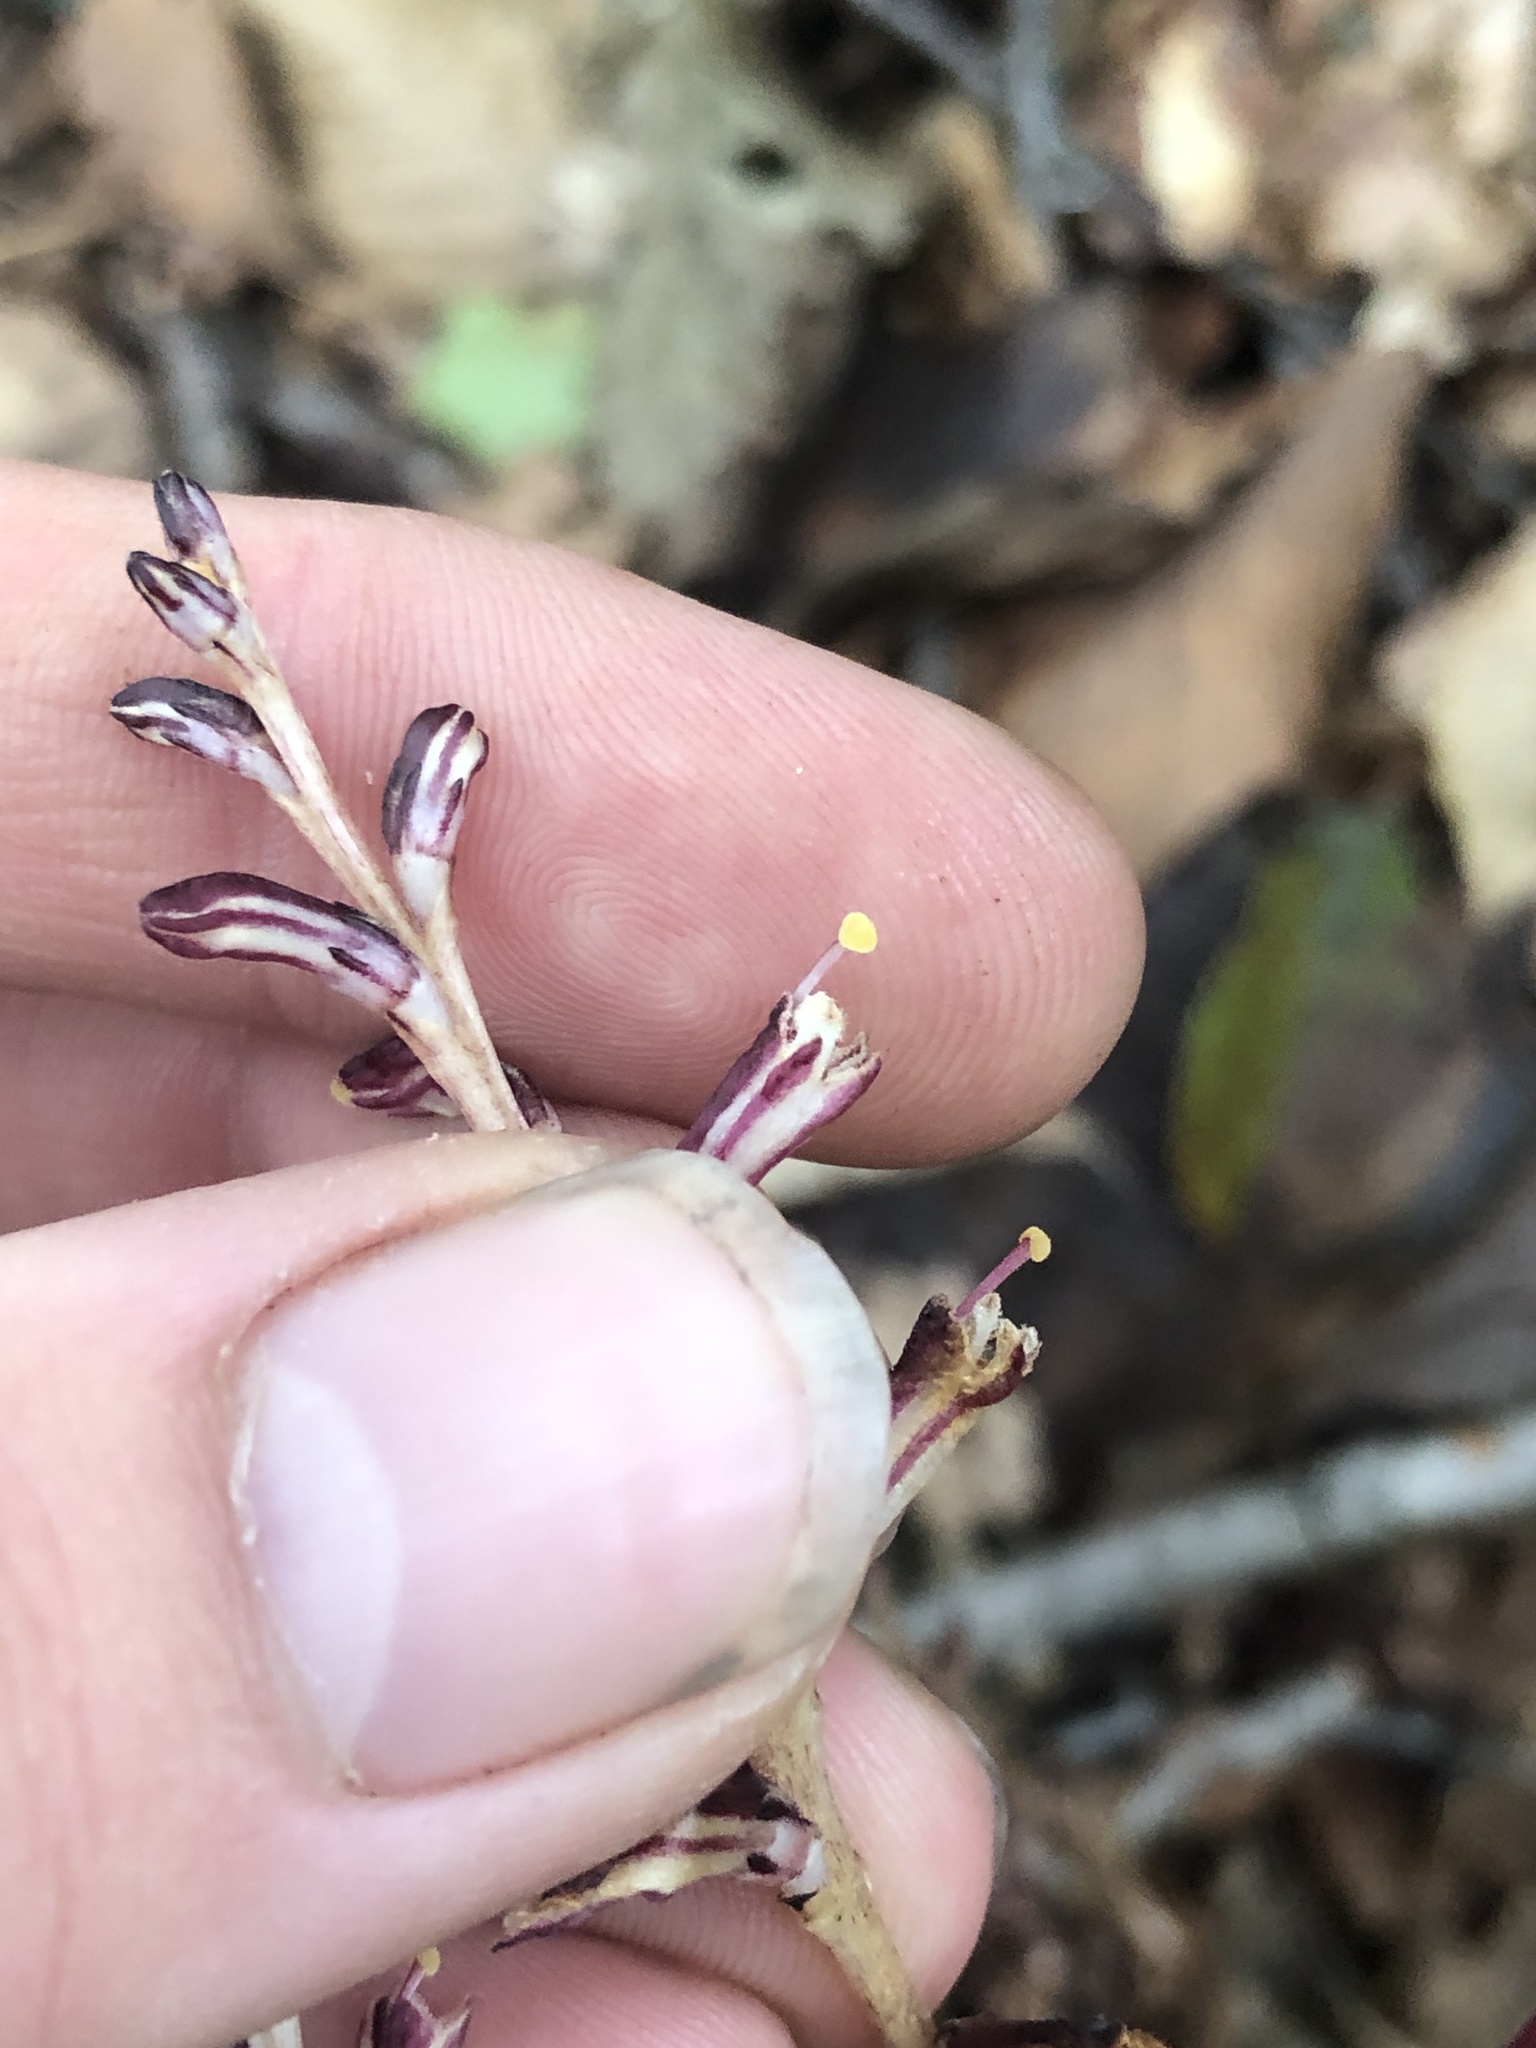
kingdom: Plantae
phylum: Tracheophyta
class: Magnoliopsida
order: Lamiales
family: Orobanchaceae
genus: Epifagus
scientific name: Epifagus virginiana
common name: Beechdrops
